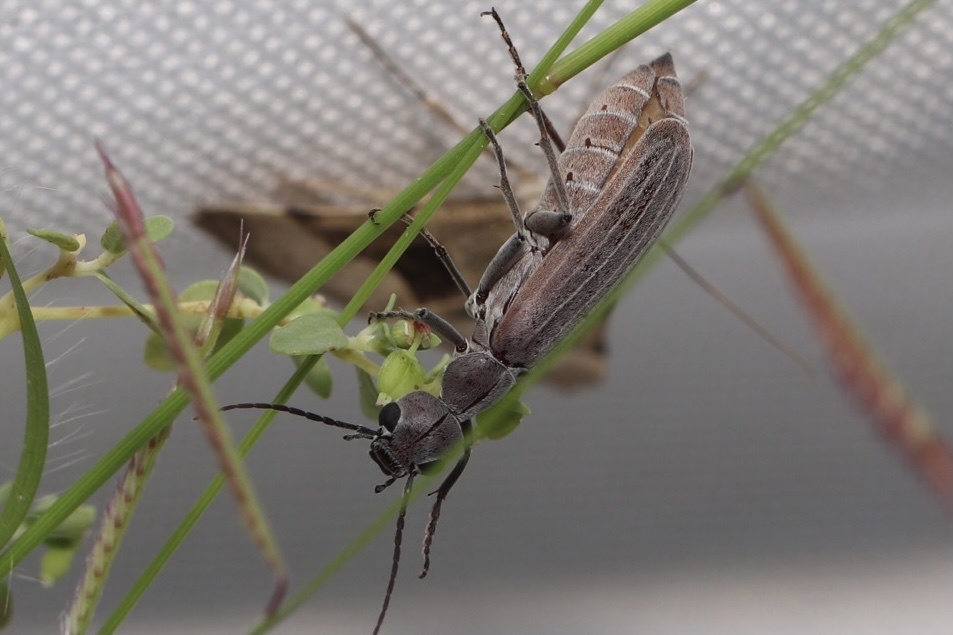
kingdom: Animalia
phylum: Arthropoda
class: Insecta
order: Coleoptera
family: Meloidae
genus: Epicauta
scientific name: Epicauta tenuilineata
